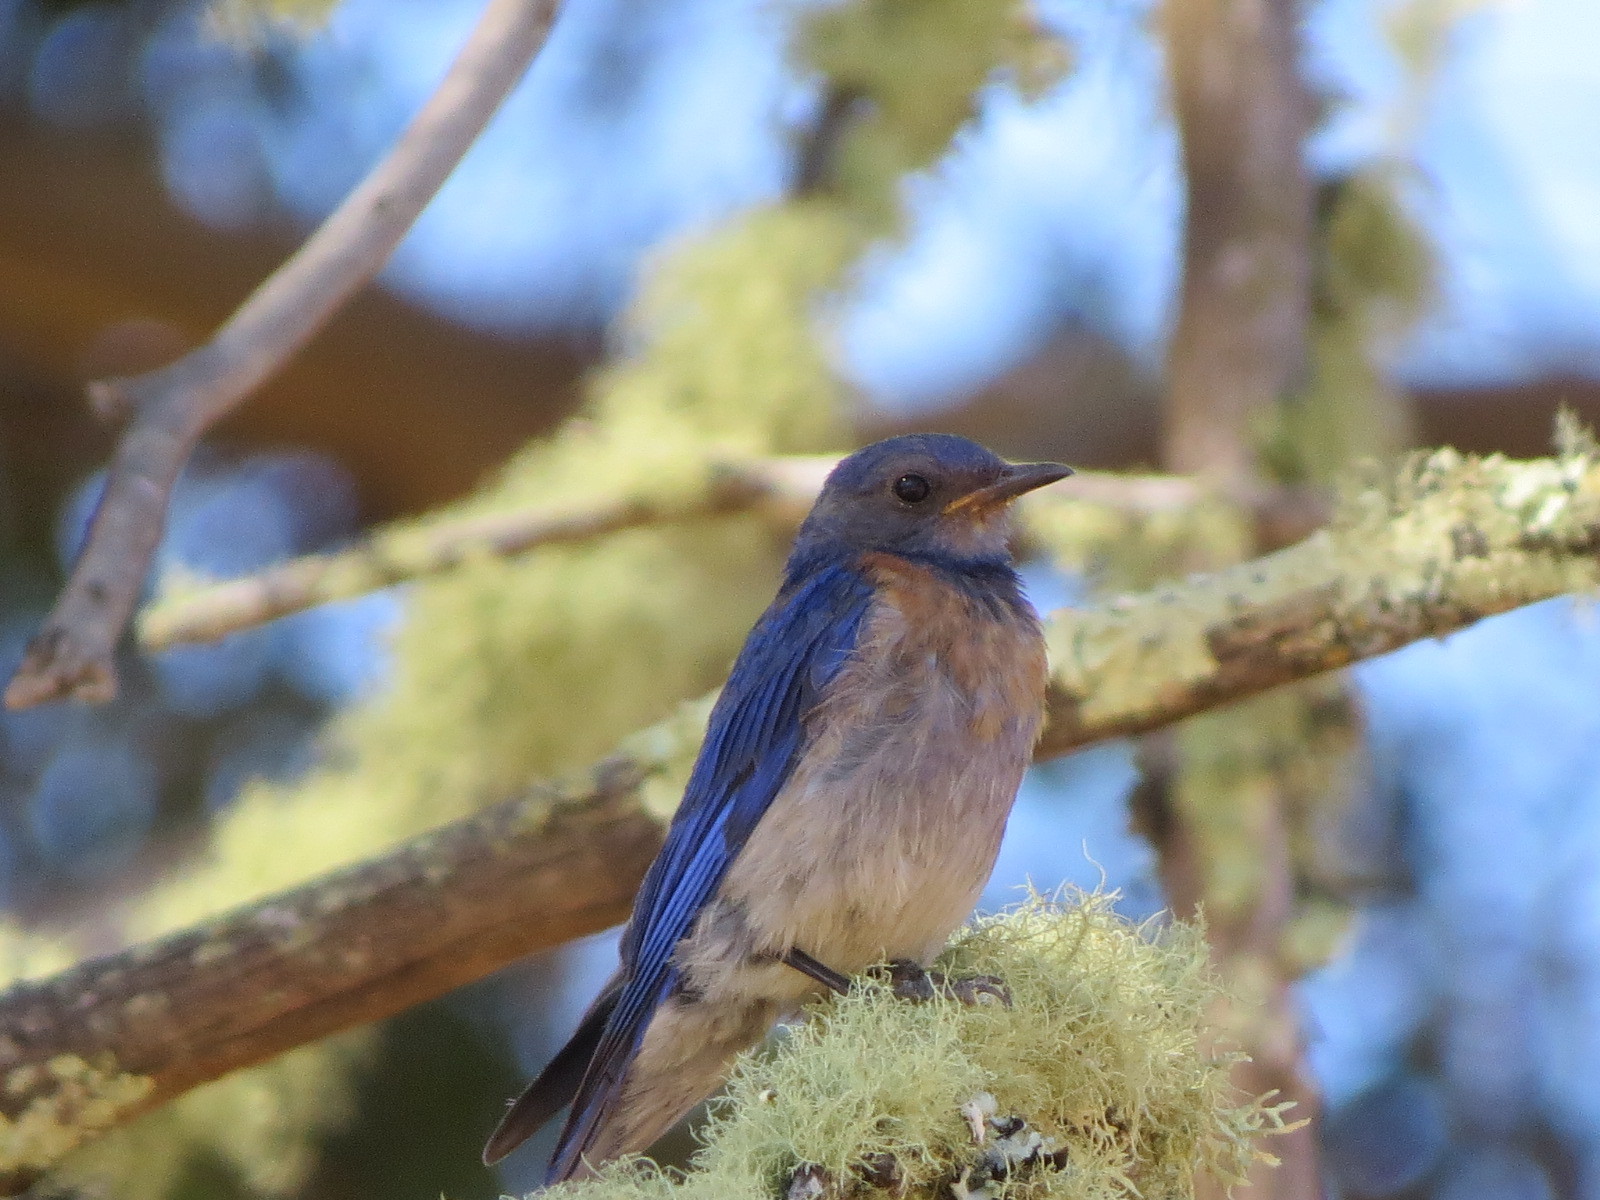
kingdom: Animalia
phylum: Chordata
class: Aves
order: Passeriformes
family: Turdidae
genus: Sialia
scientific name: Sialia mexicana
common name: Western bluebird
